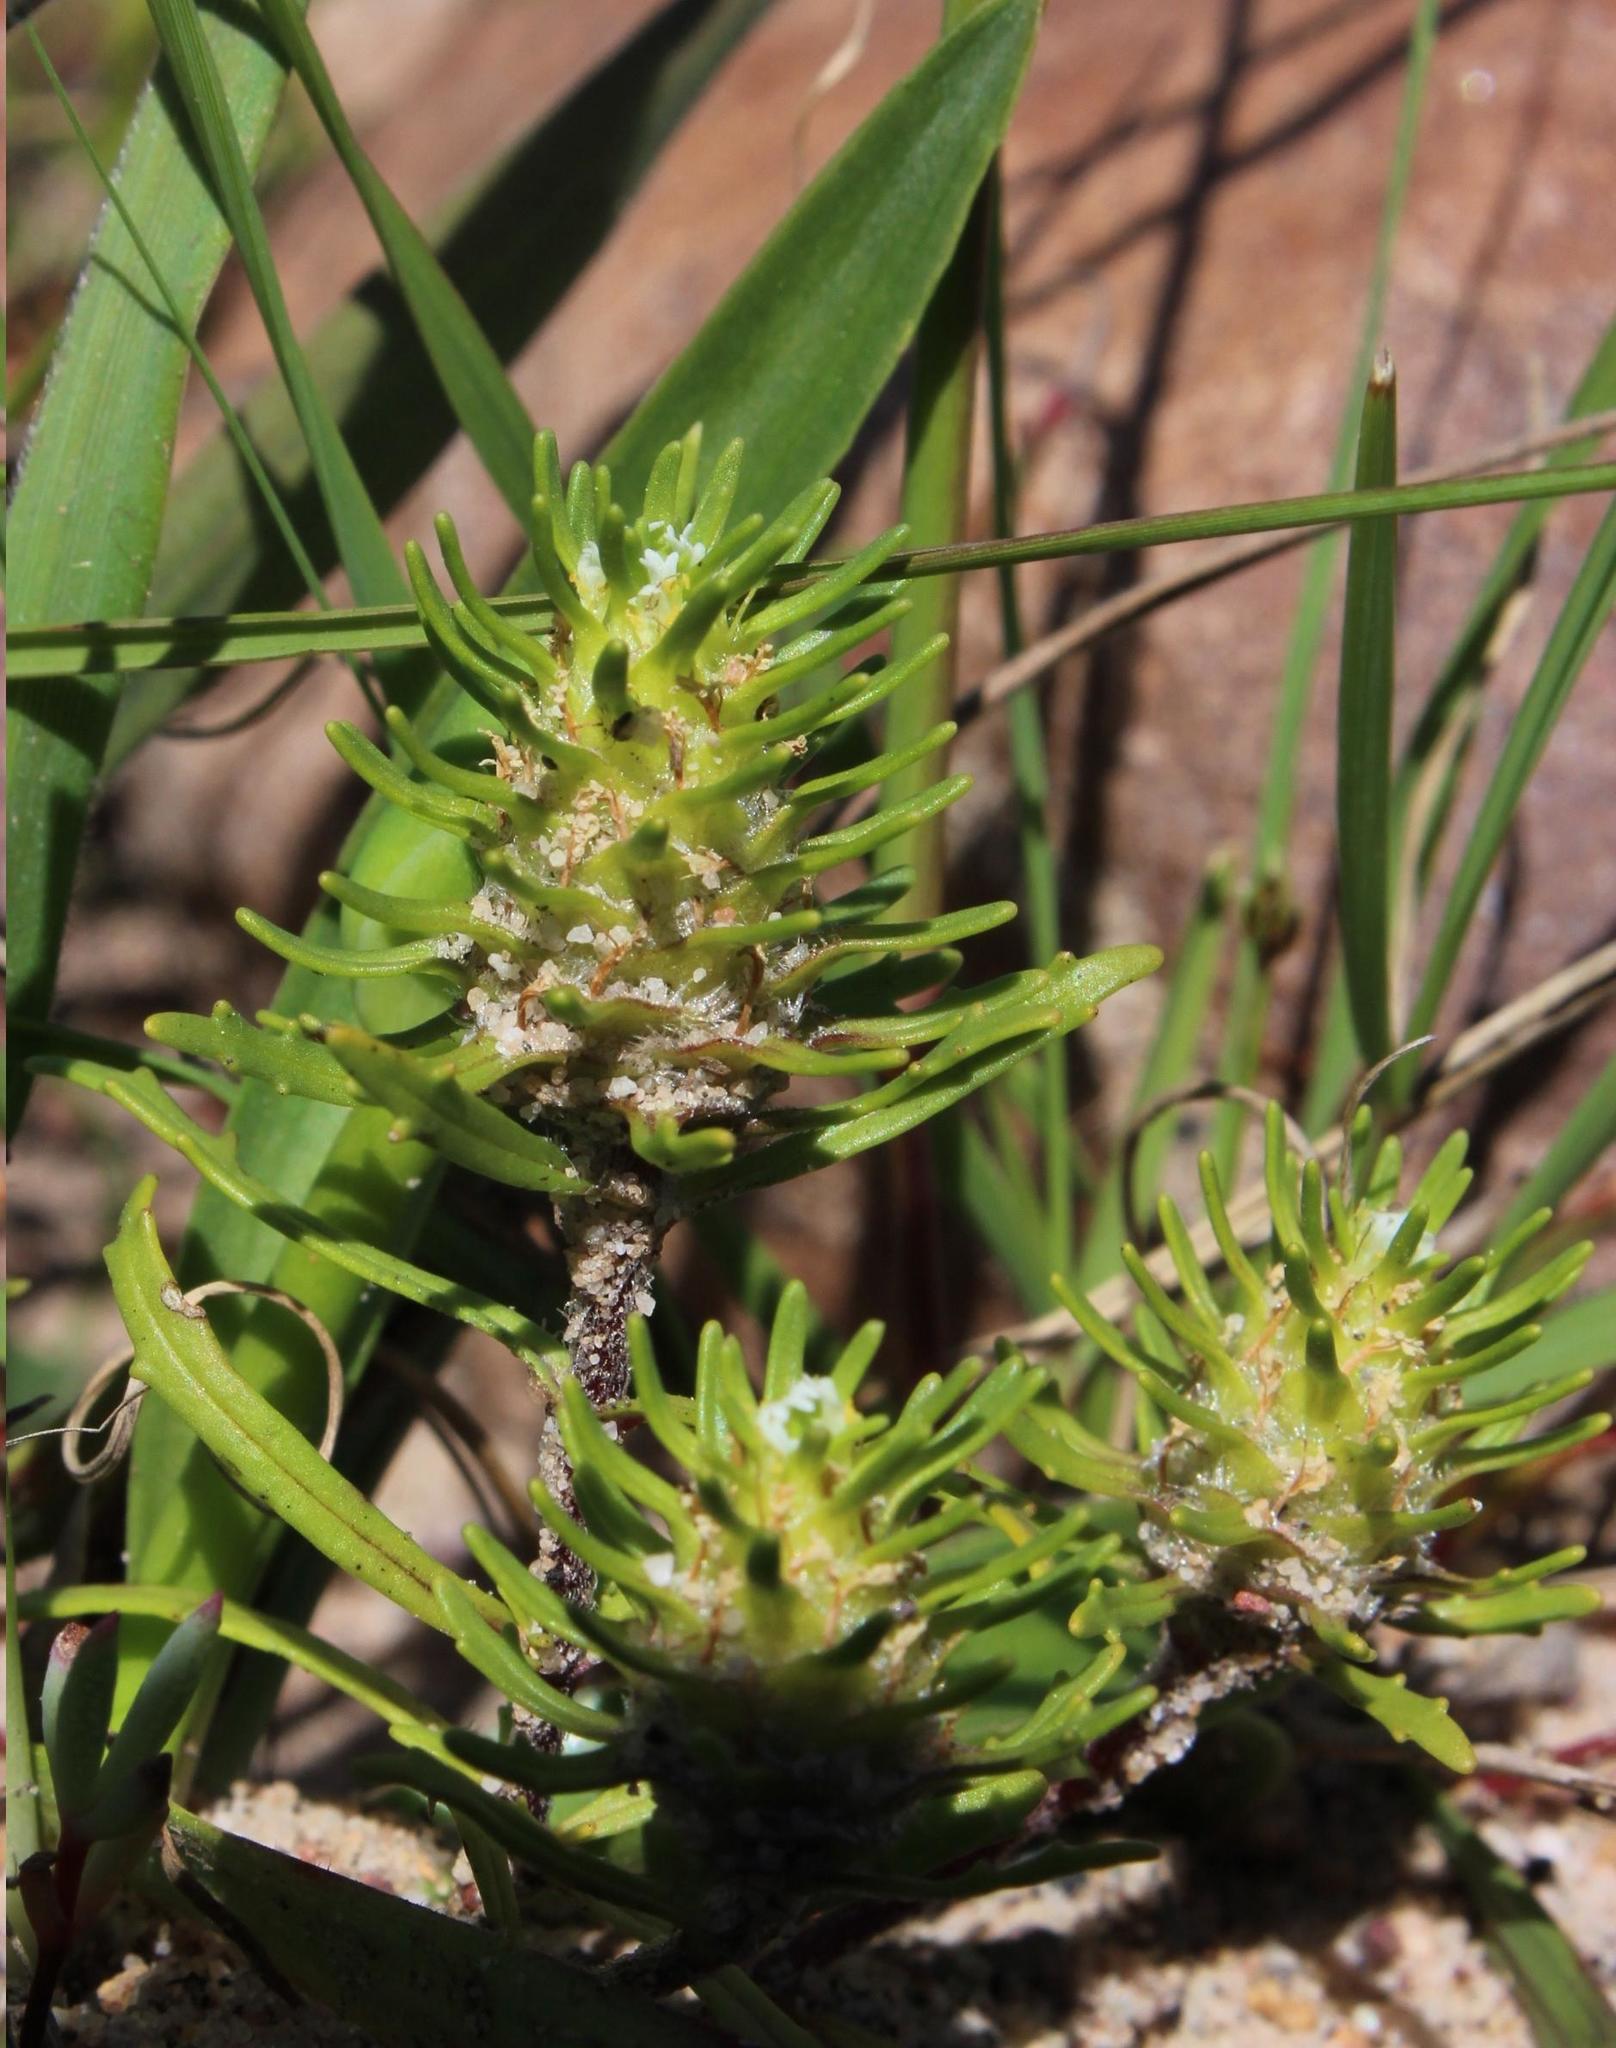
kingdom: Plantae
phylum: Tracheophyta
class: Magnoliopsida
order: Lamiales
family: Scrophulariaceae
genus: Dischisma
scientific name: Dischisma capitatum
